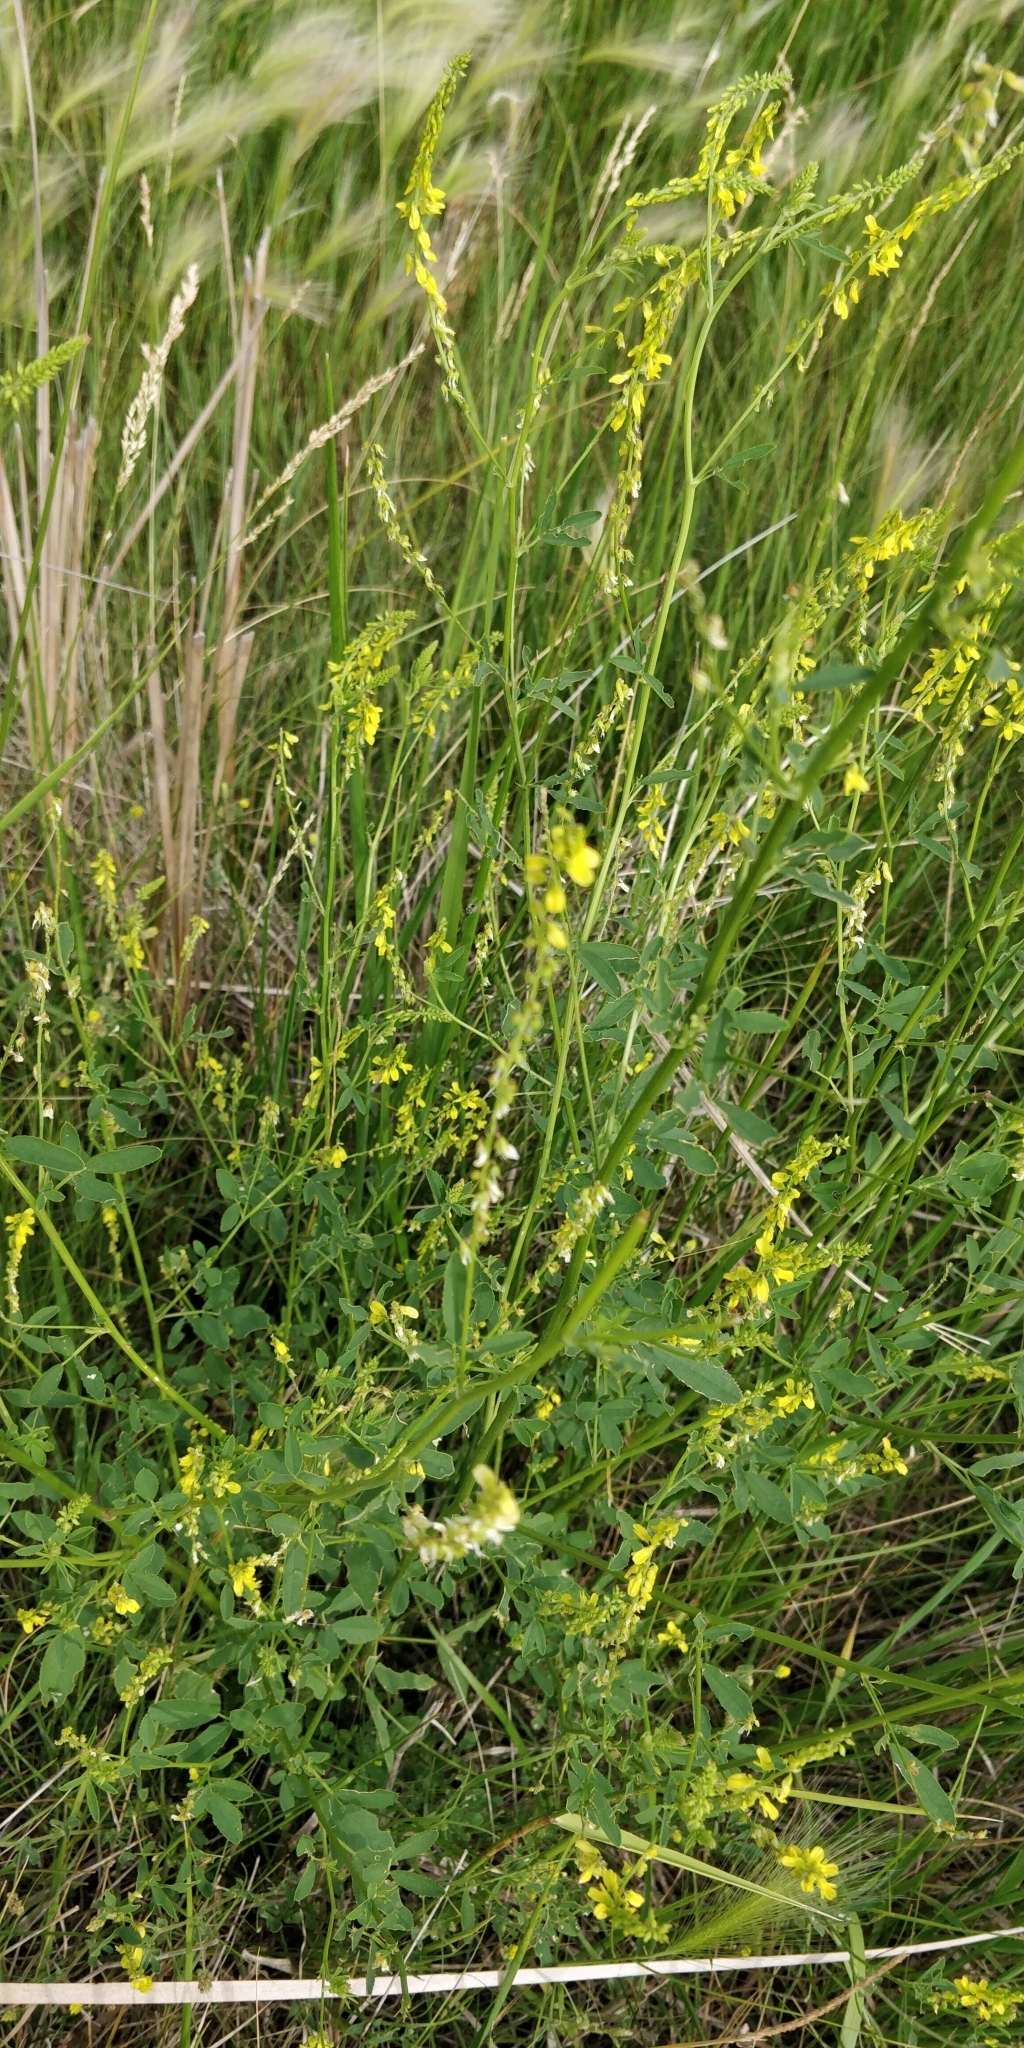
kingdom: Plantae
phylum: Tracheophyta
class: Magnoliopsida
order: Fabales
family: Fabaceae
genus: Melilotus
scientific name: Melilotus officinalis
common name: Sweetclover
